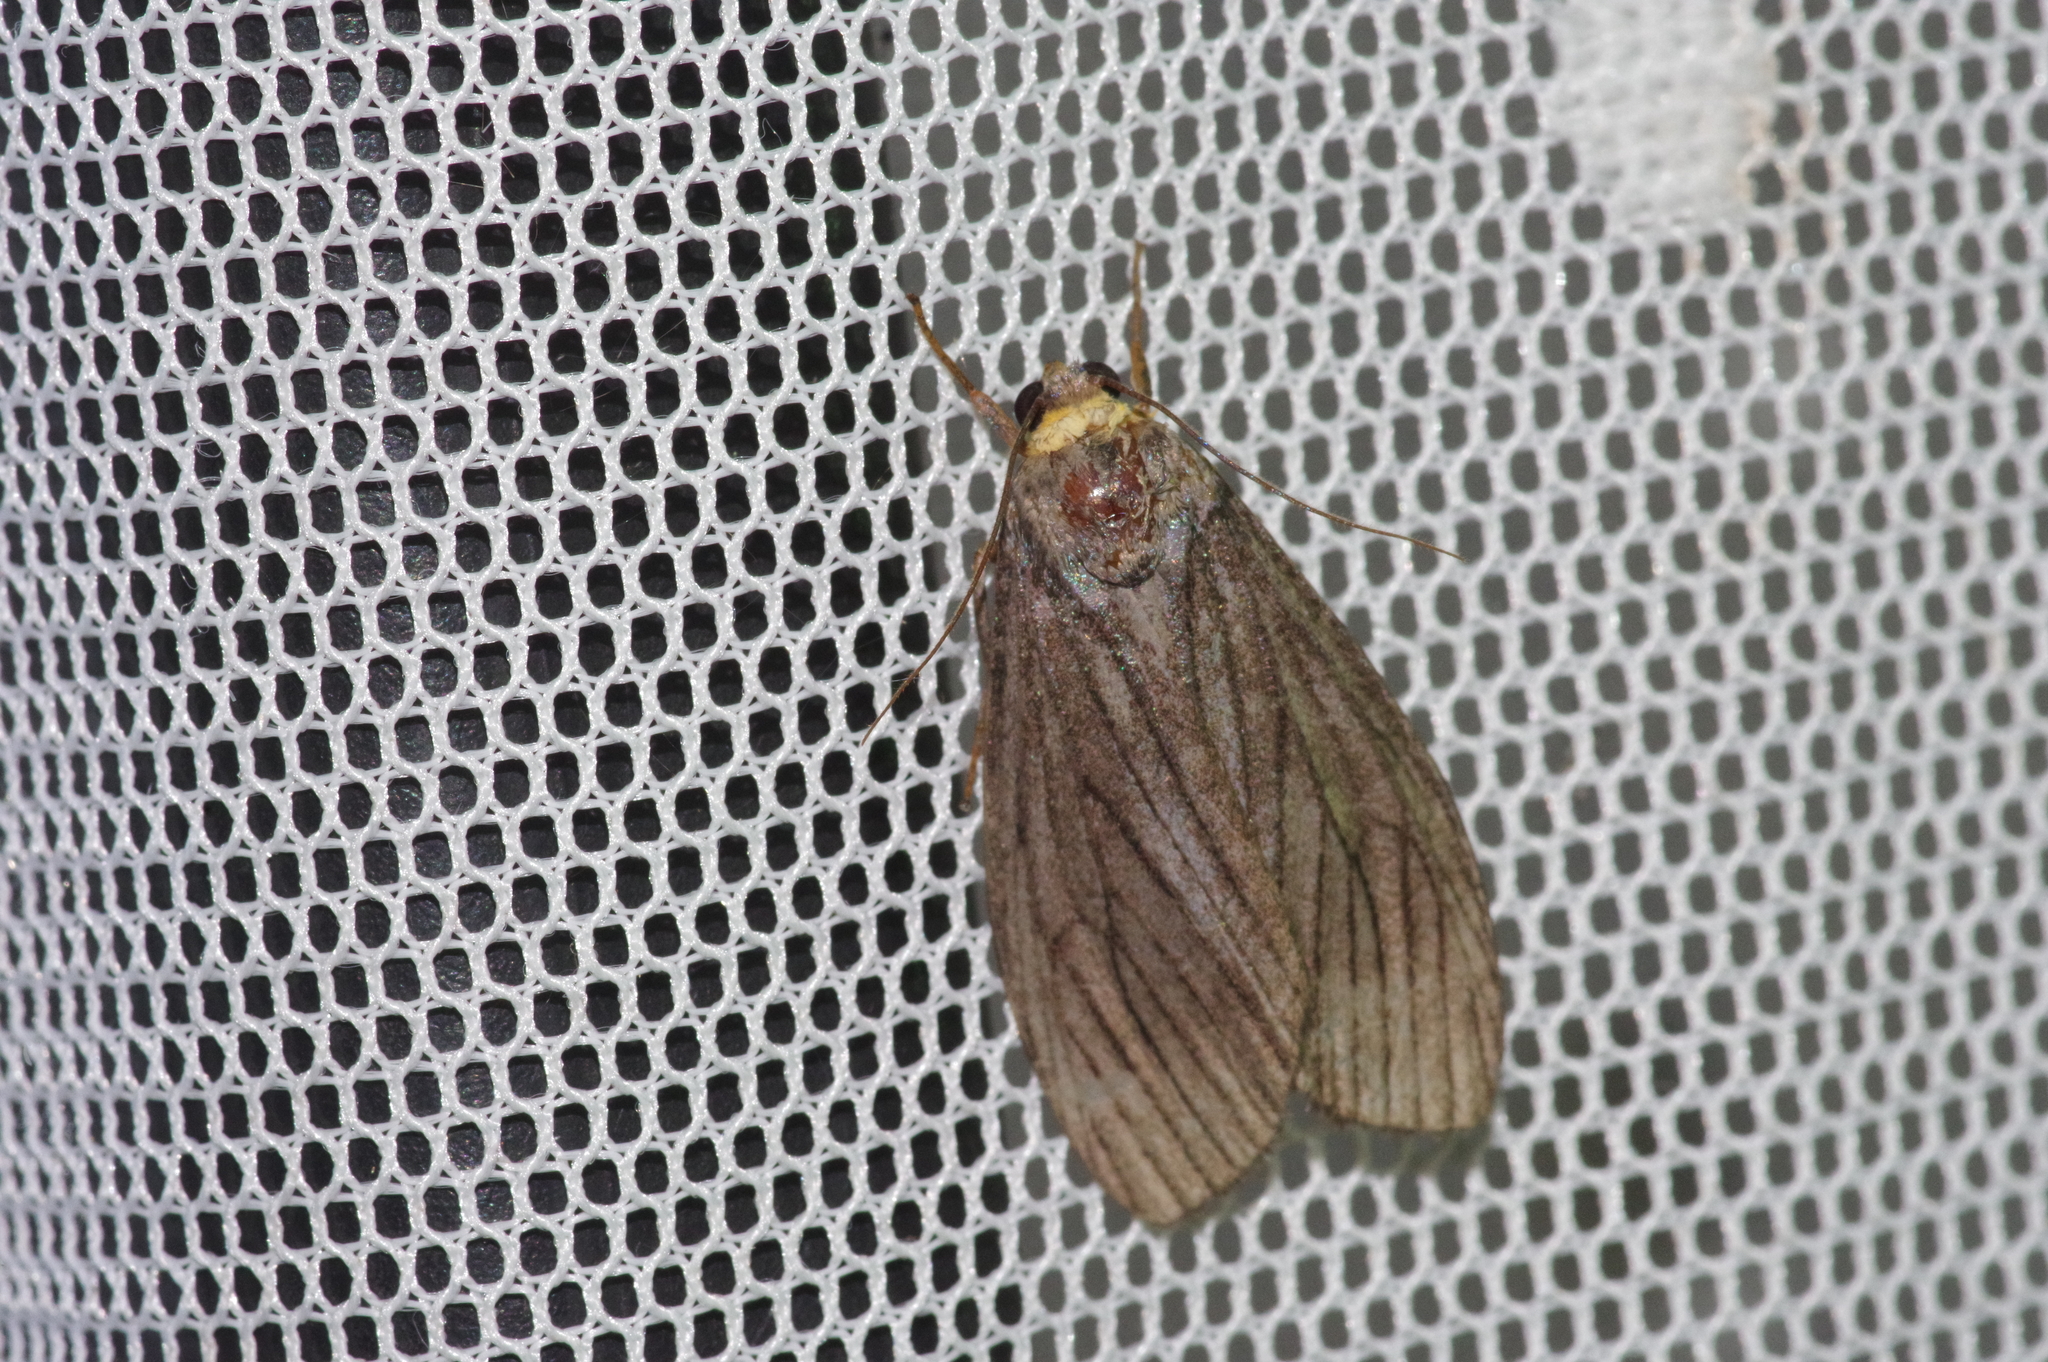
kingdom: Animalia
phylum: Arthropoda
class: Insecta
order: Lepidoptera
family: Erebidae
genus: Macrobrochis
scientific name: Macrobrochis staudingeri
